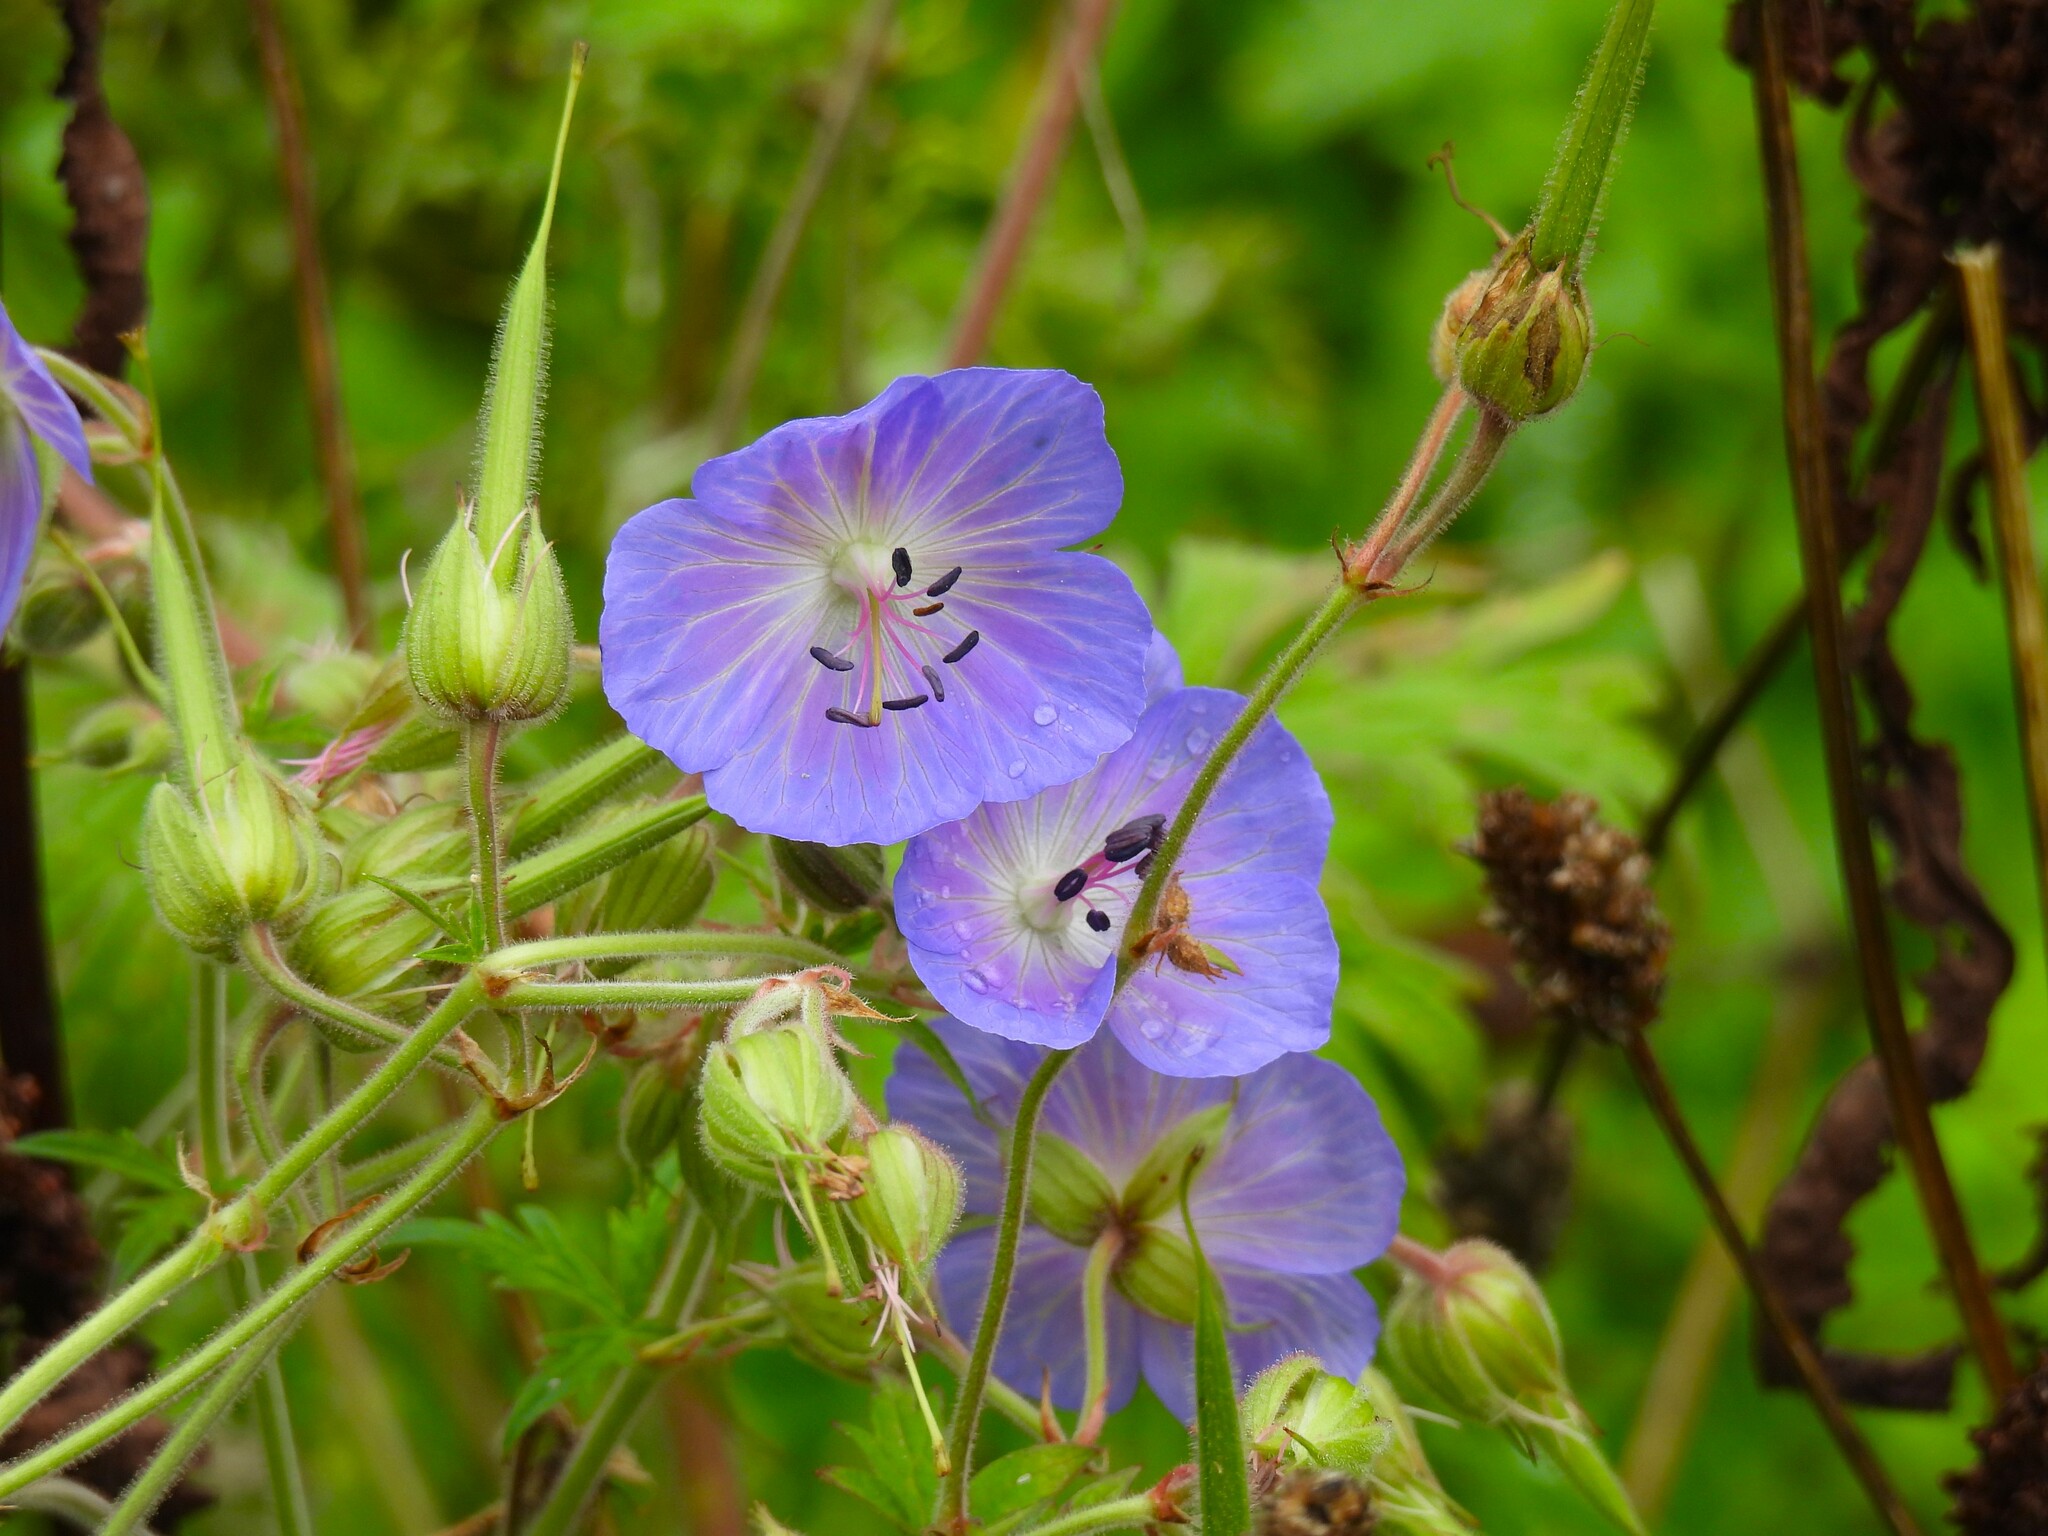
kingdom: Plantae
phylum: Tracheophyta
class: Magnoliopsida
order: Geraniales
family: Geraniaceae
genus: Geranium
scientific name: Geranium pratense
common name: Meadow crane's-bill
